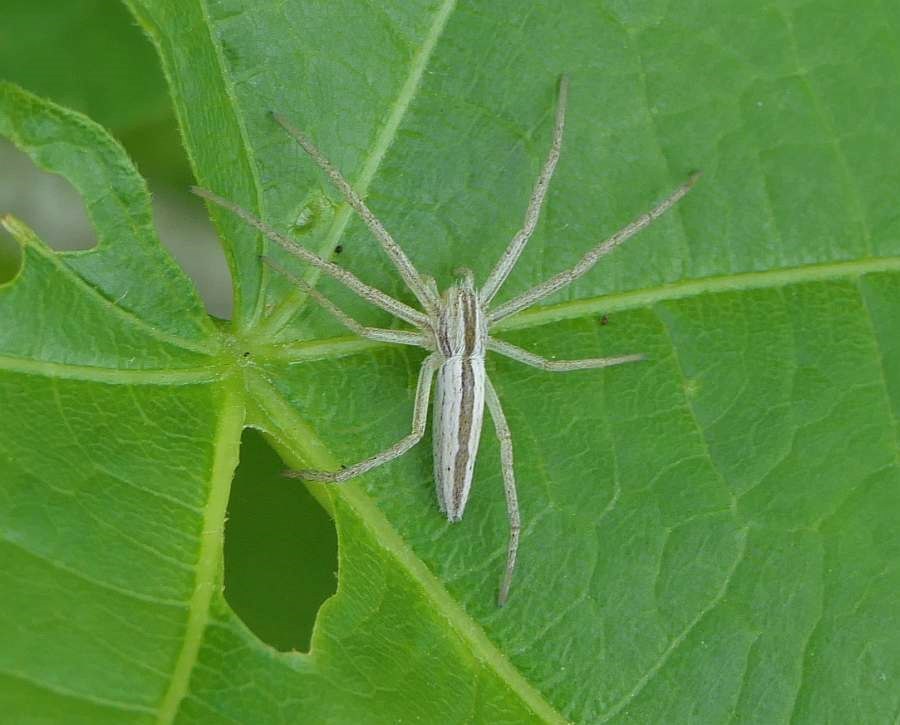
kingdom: Animalia
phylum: Arthropoda
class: Arachnida
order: Araneae
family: Philodromidae
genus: Tibellus
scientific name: Tibellus oblongus
